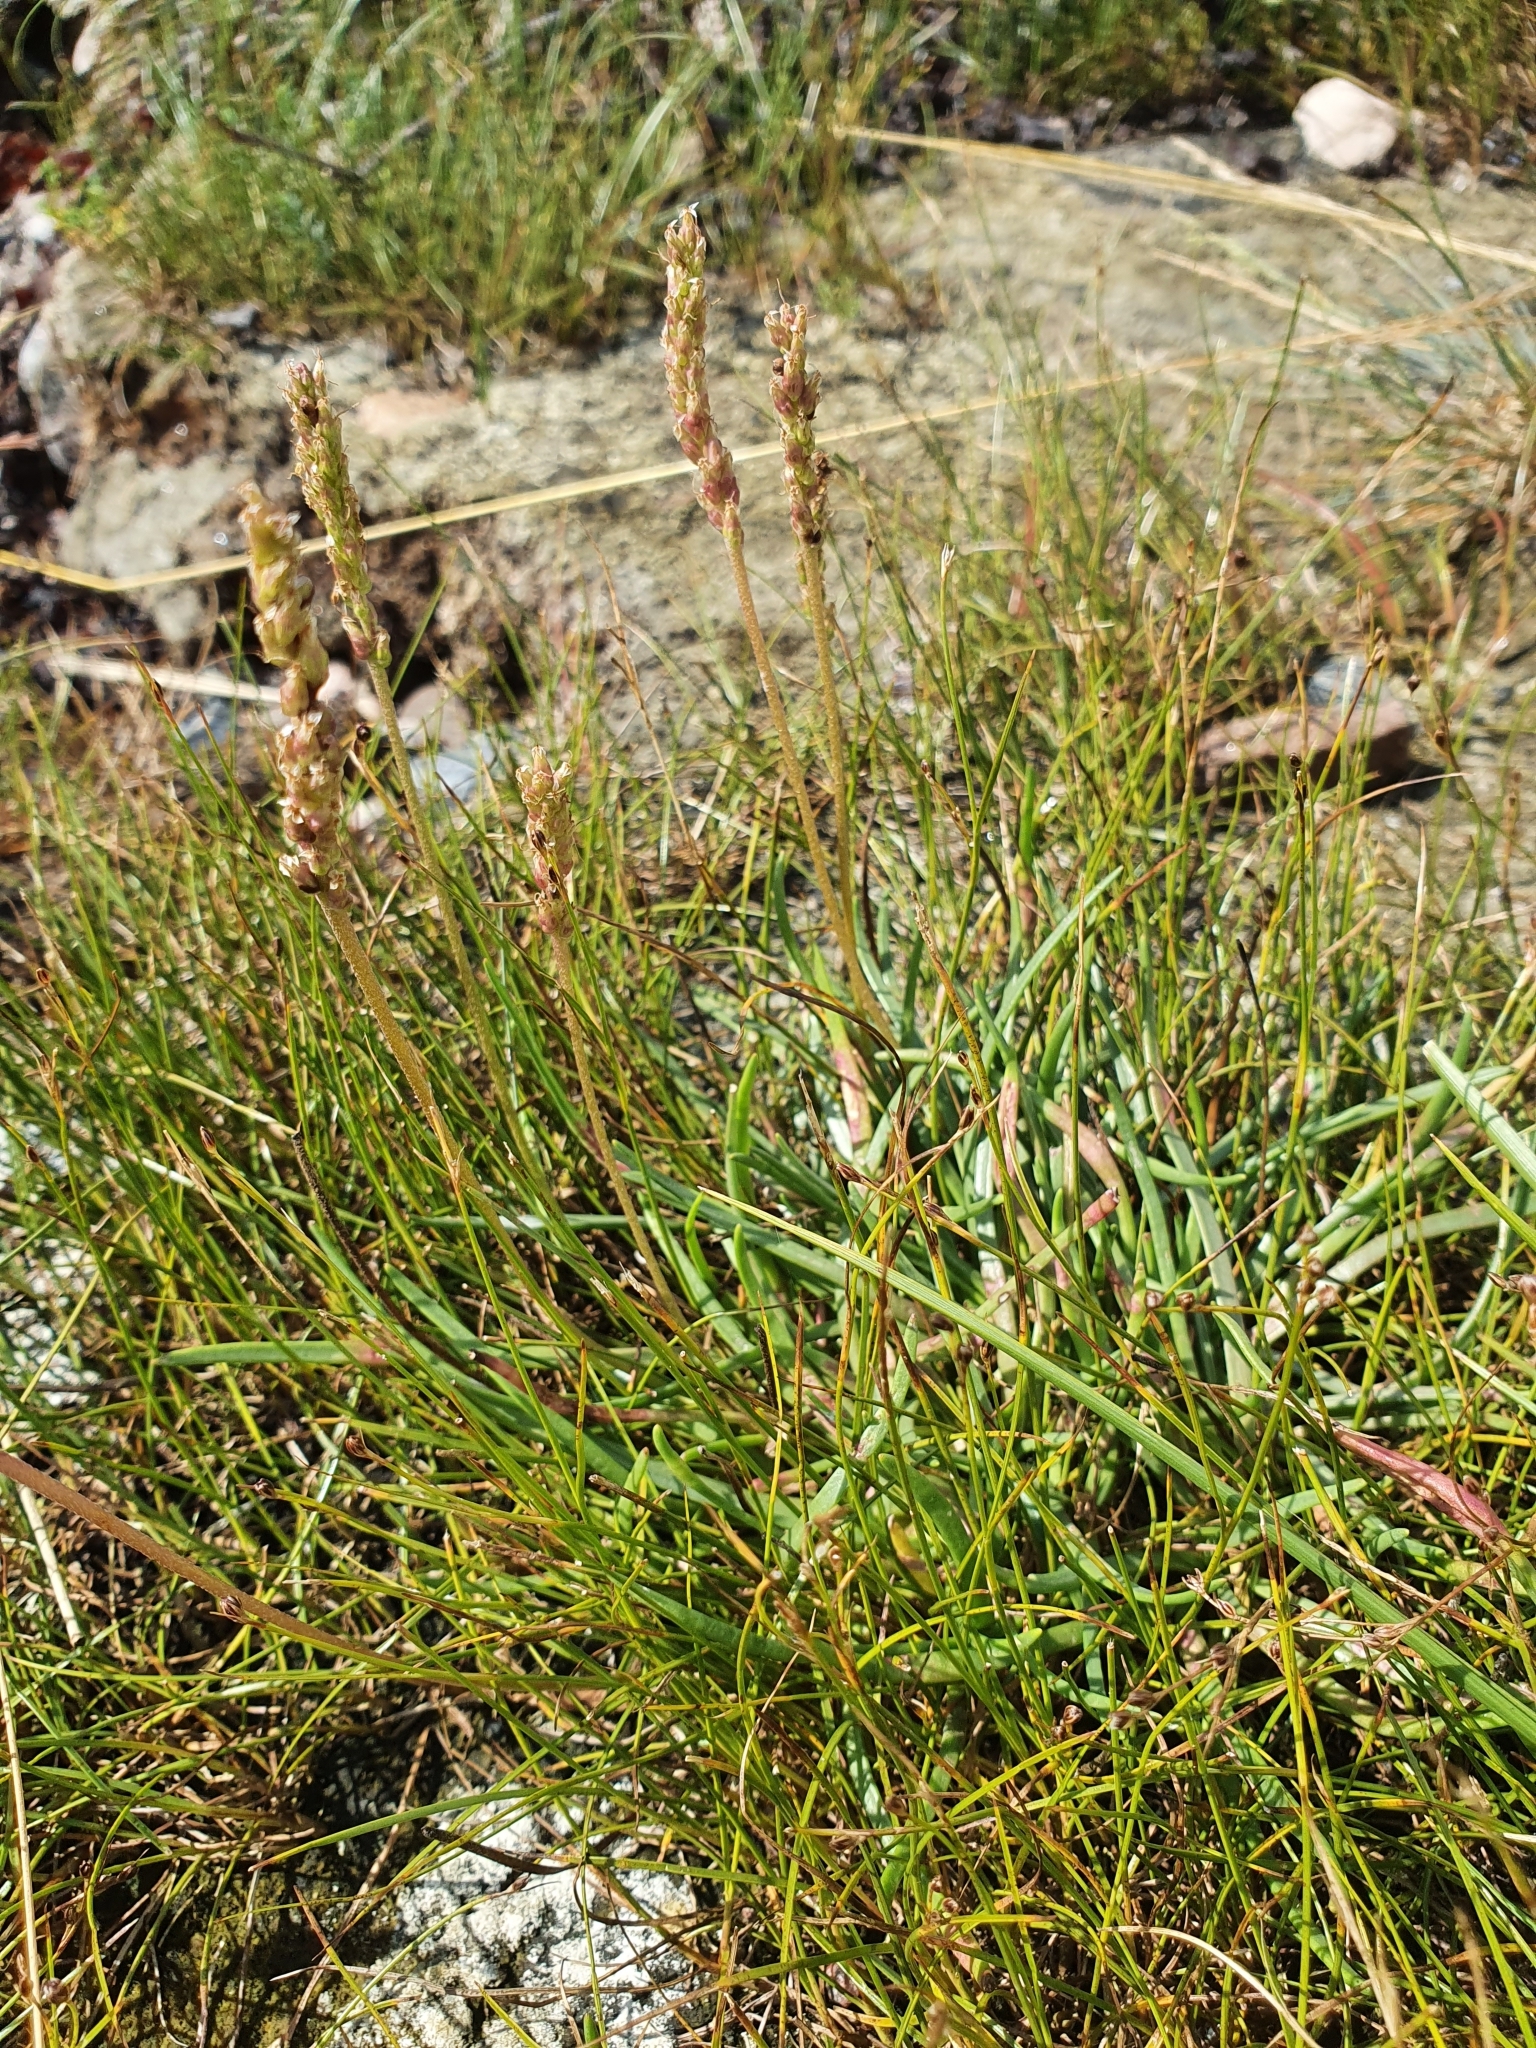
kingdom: Plantae
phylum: Tracheophyta
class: Magnoliopsida
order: Lamiales
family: Plantaginaceae
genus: Plantago
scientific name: Plantago maritima
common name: Sea plantain
